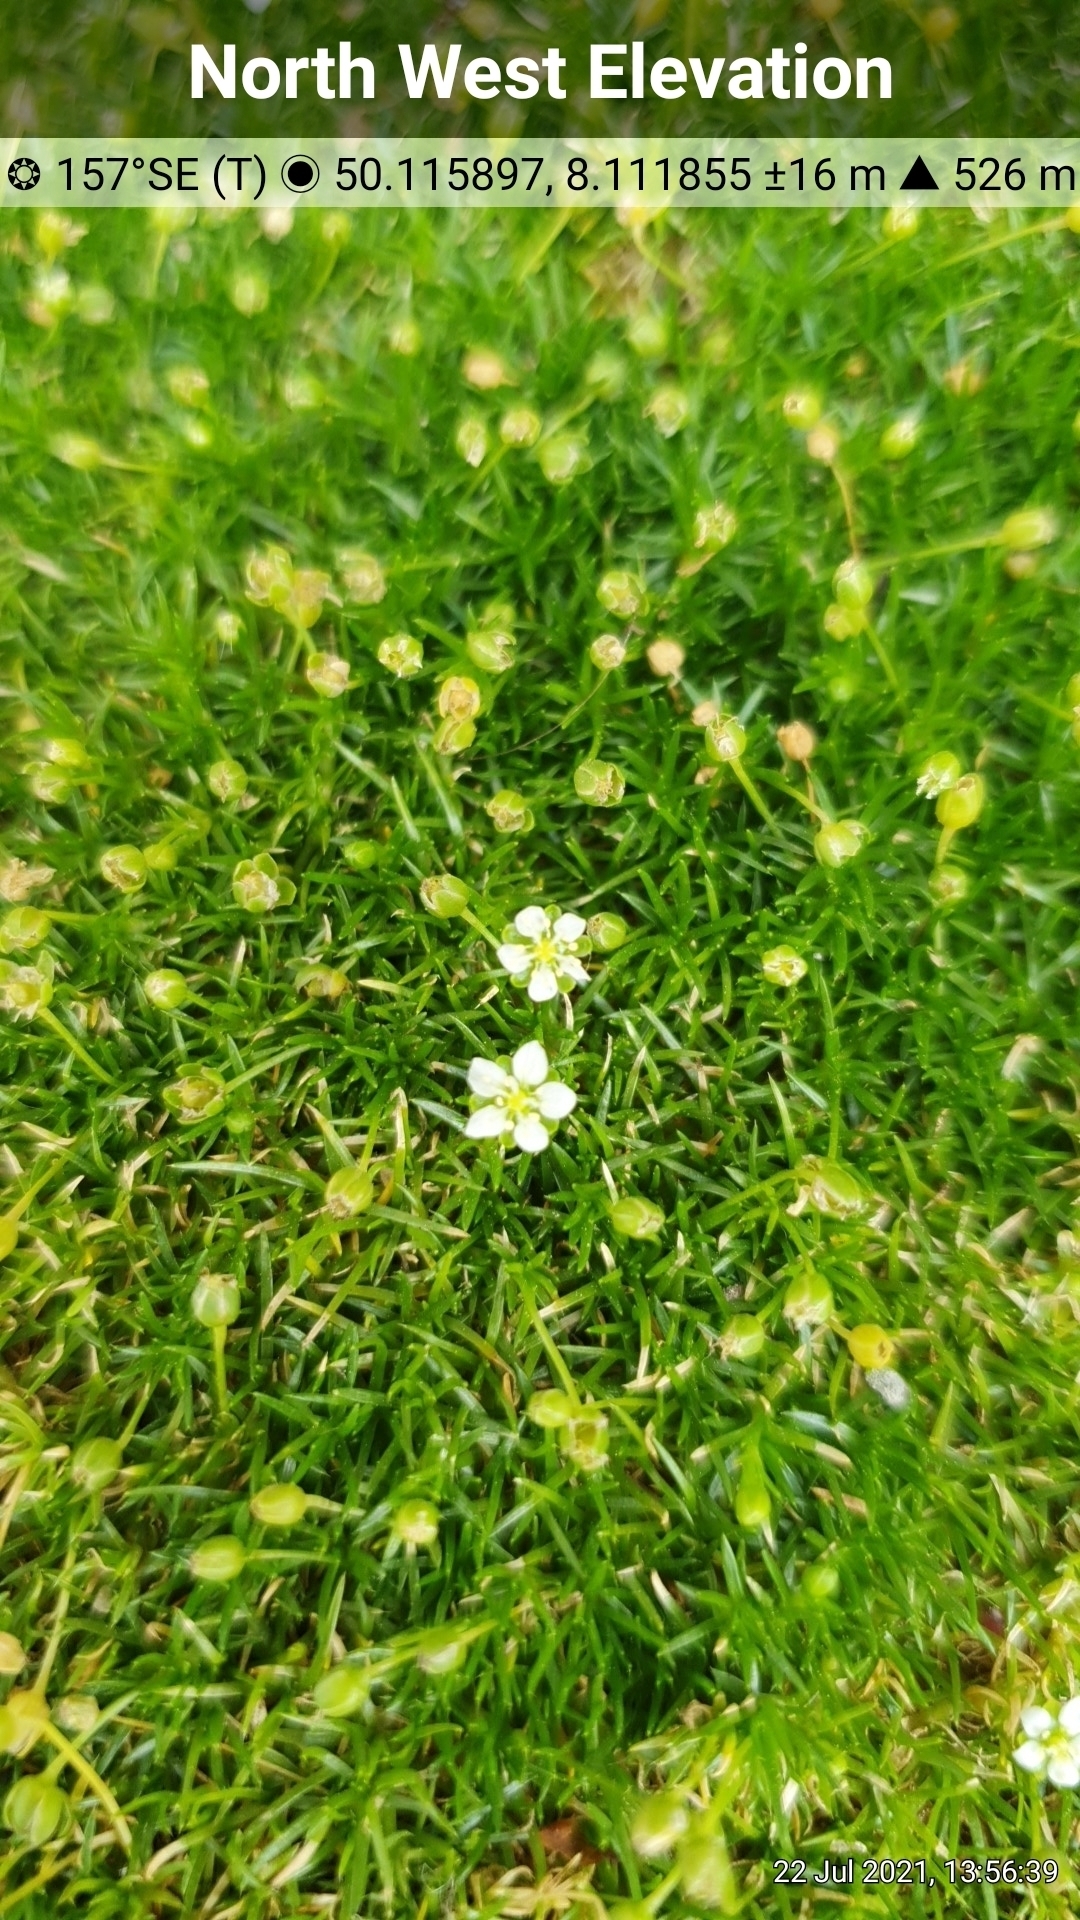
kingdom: Plantae
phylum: Tracheophyta
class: Magnoliopsida
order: Caryophyllales
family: Caryophyllaceae
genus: Sagina
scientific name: Sagina subulata
